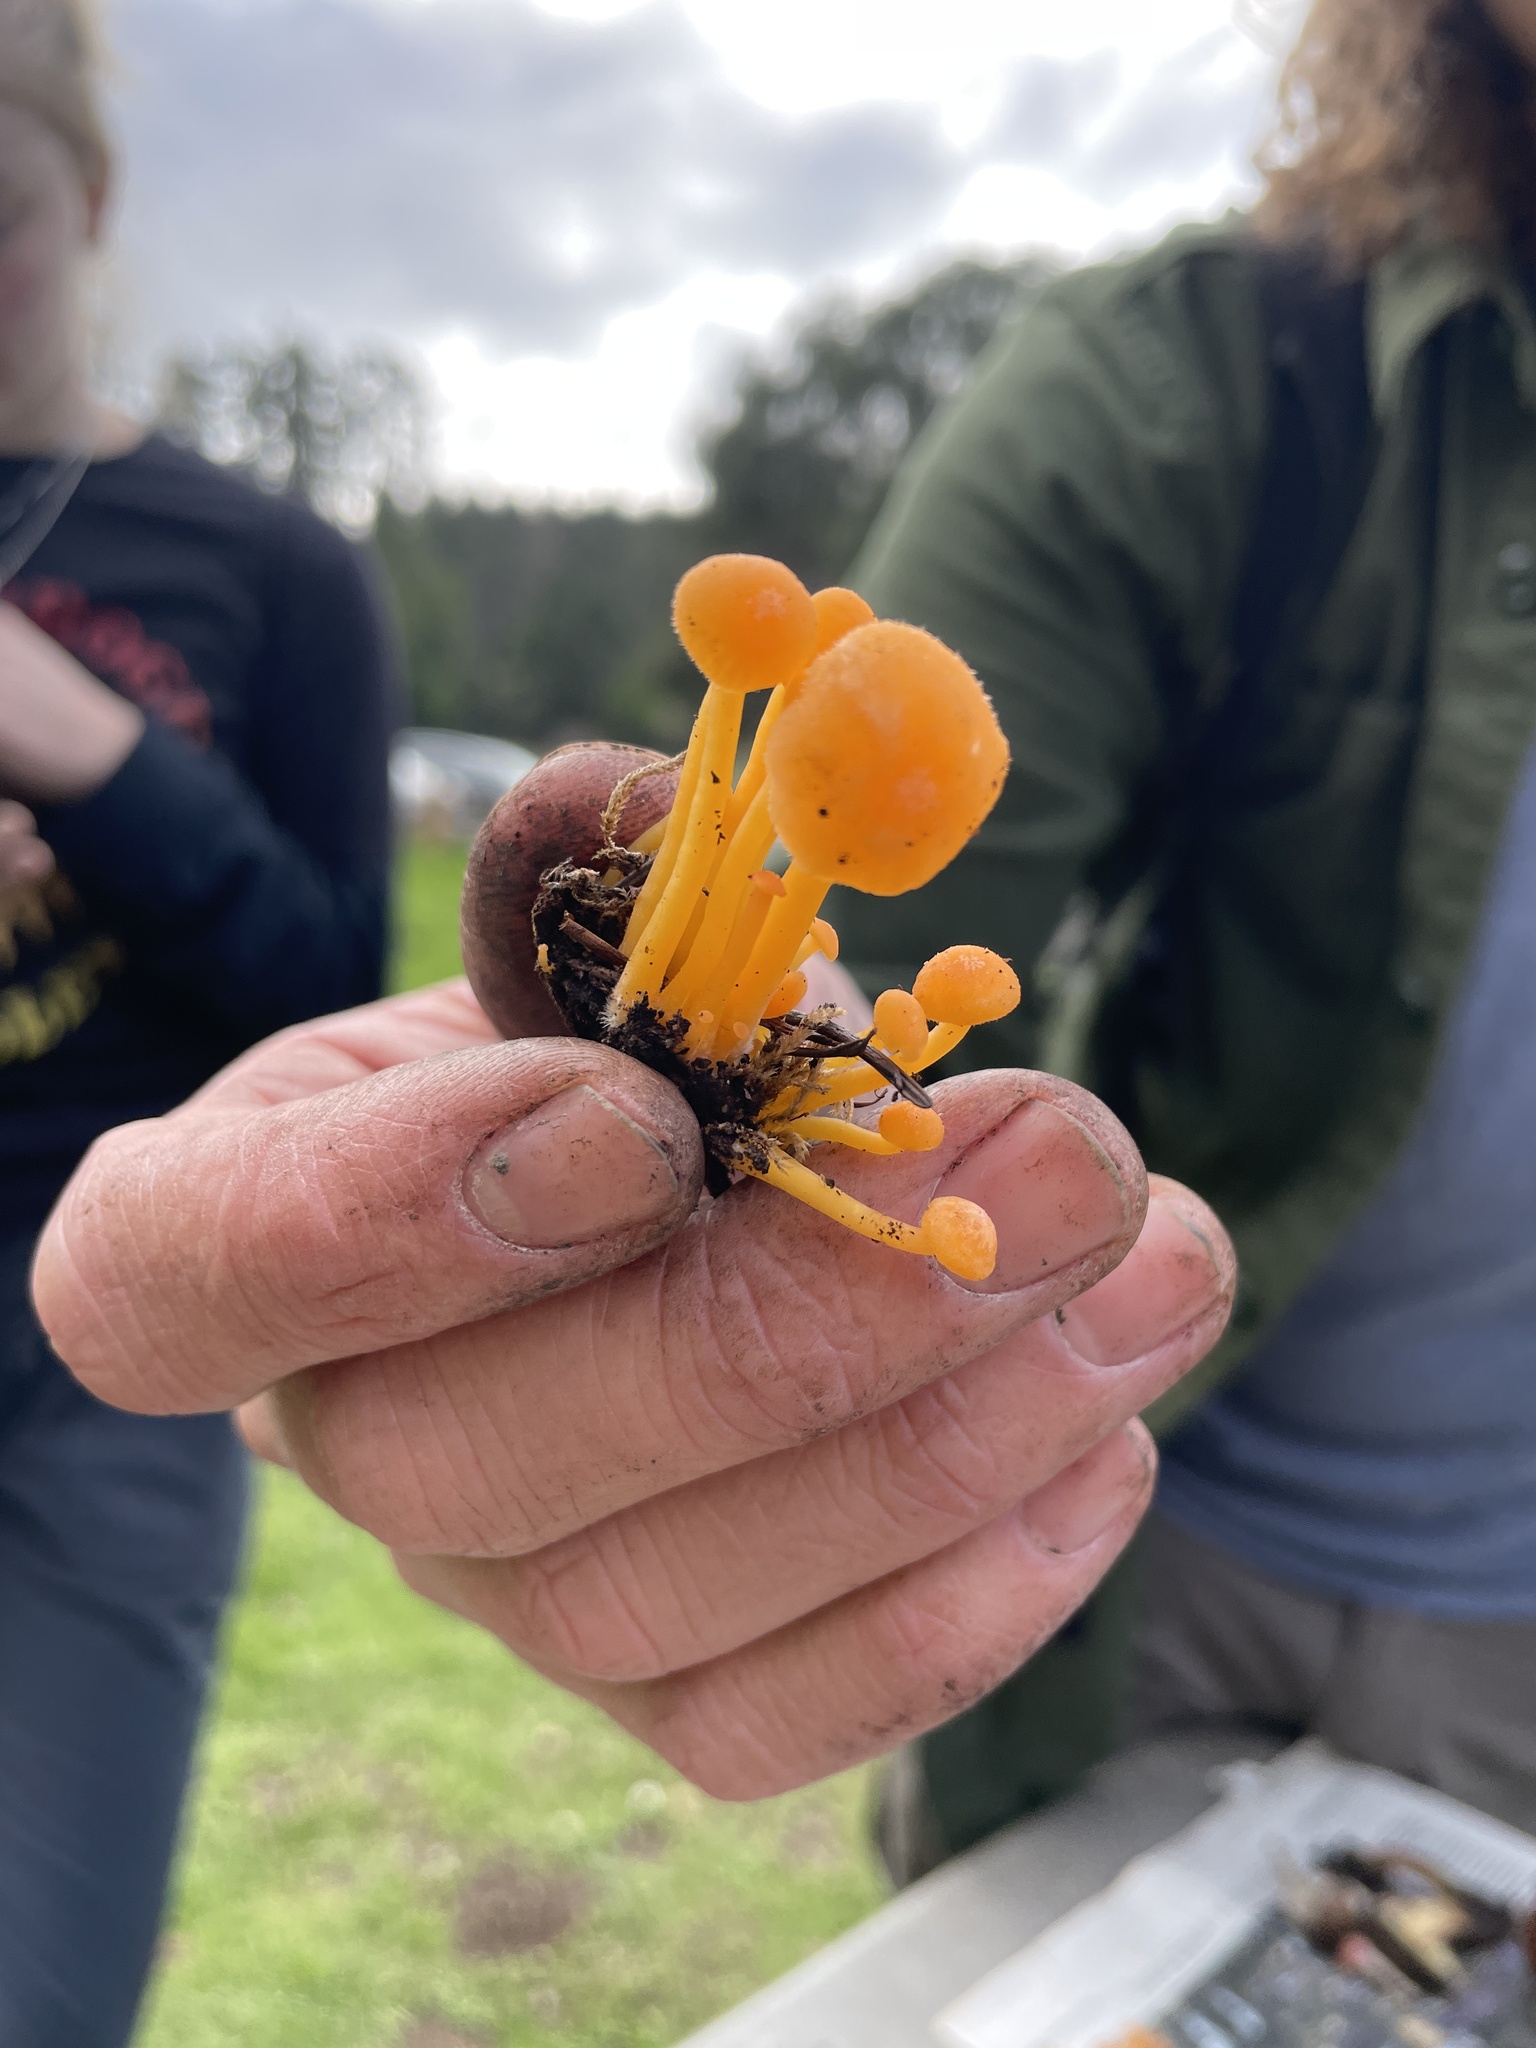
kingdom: Fungi
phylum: Basidiomycota
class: Agaricomycetes
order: Agaricales
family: Hygrophoraceae
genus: Chrysomphalina
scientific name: Chrysomphalina aurantiaca
